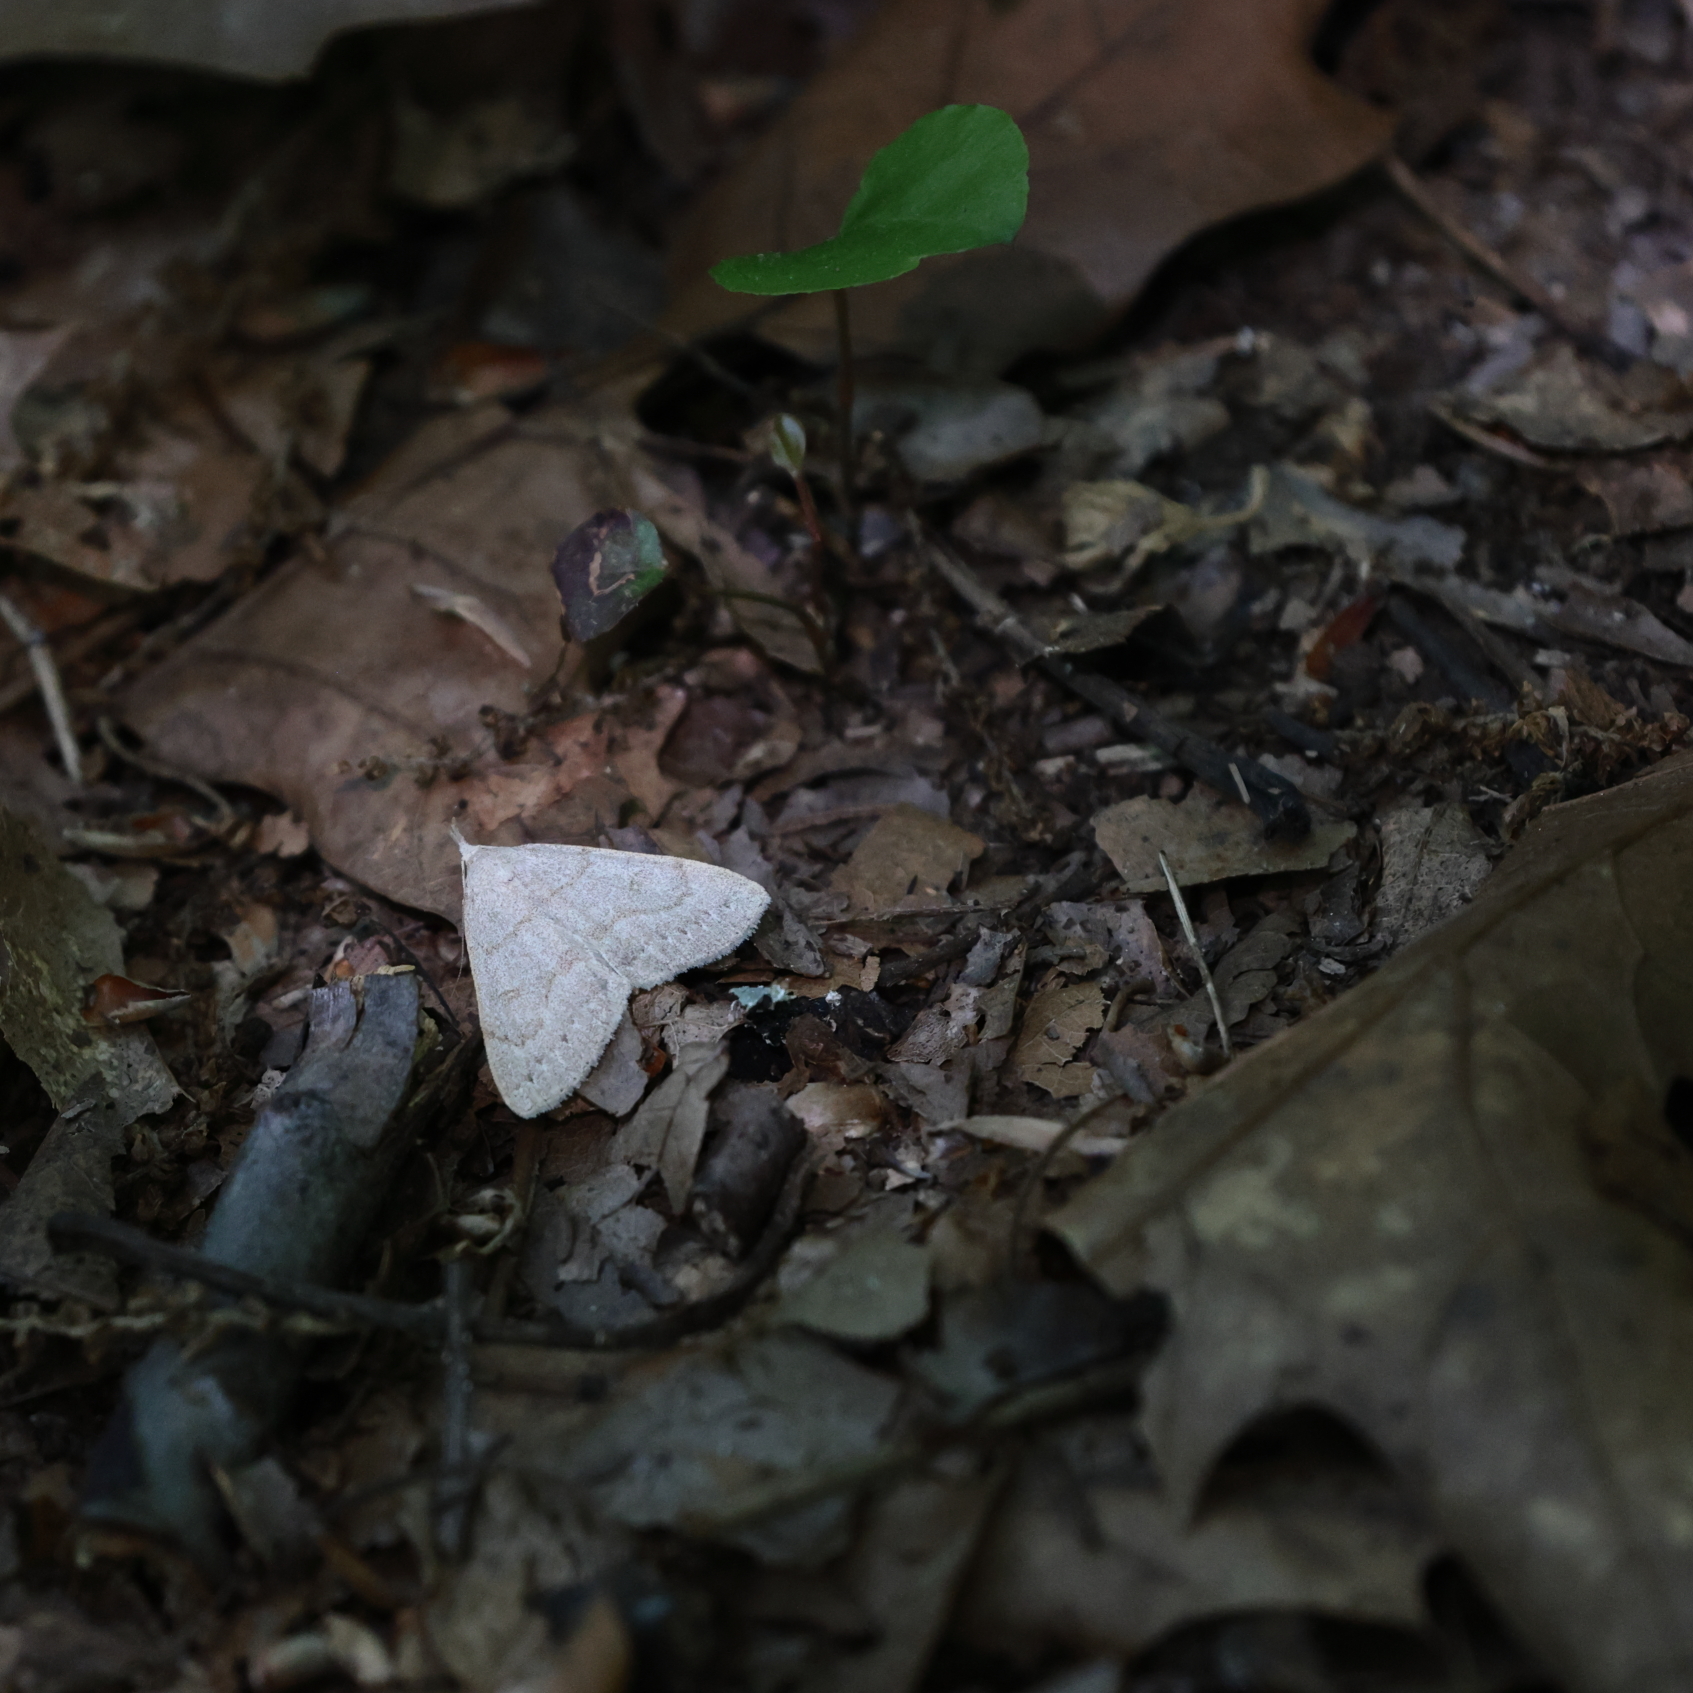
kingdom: Animalia
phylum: Arthropoda
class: Insecta
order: Lepidoptera
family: Erebidae
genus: Macrochilo
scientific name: Macrochilo morbidalis
